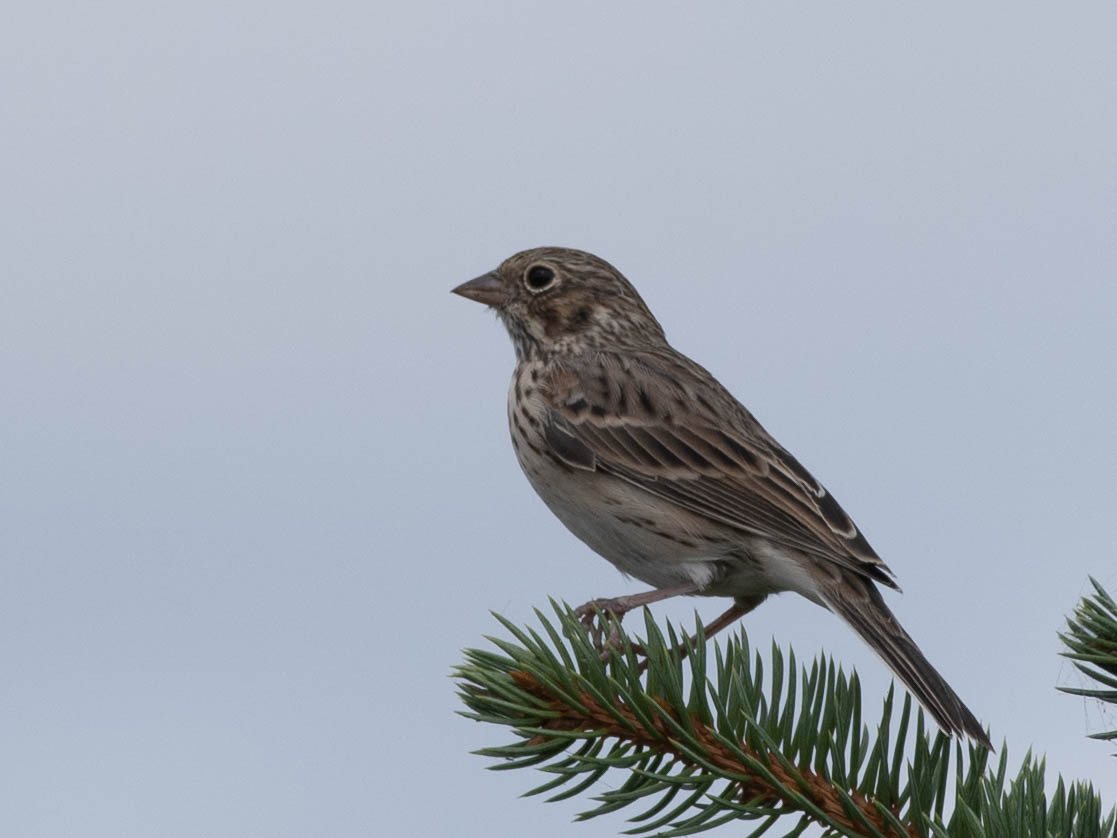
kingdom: Animalia
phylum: Chordata
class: Aves
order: Passeriformes
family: Passerellidae
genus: Pooecetes
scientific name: Pooecetes gramineus
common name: Vesper sparrow
